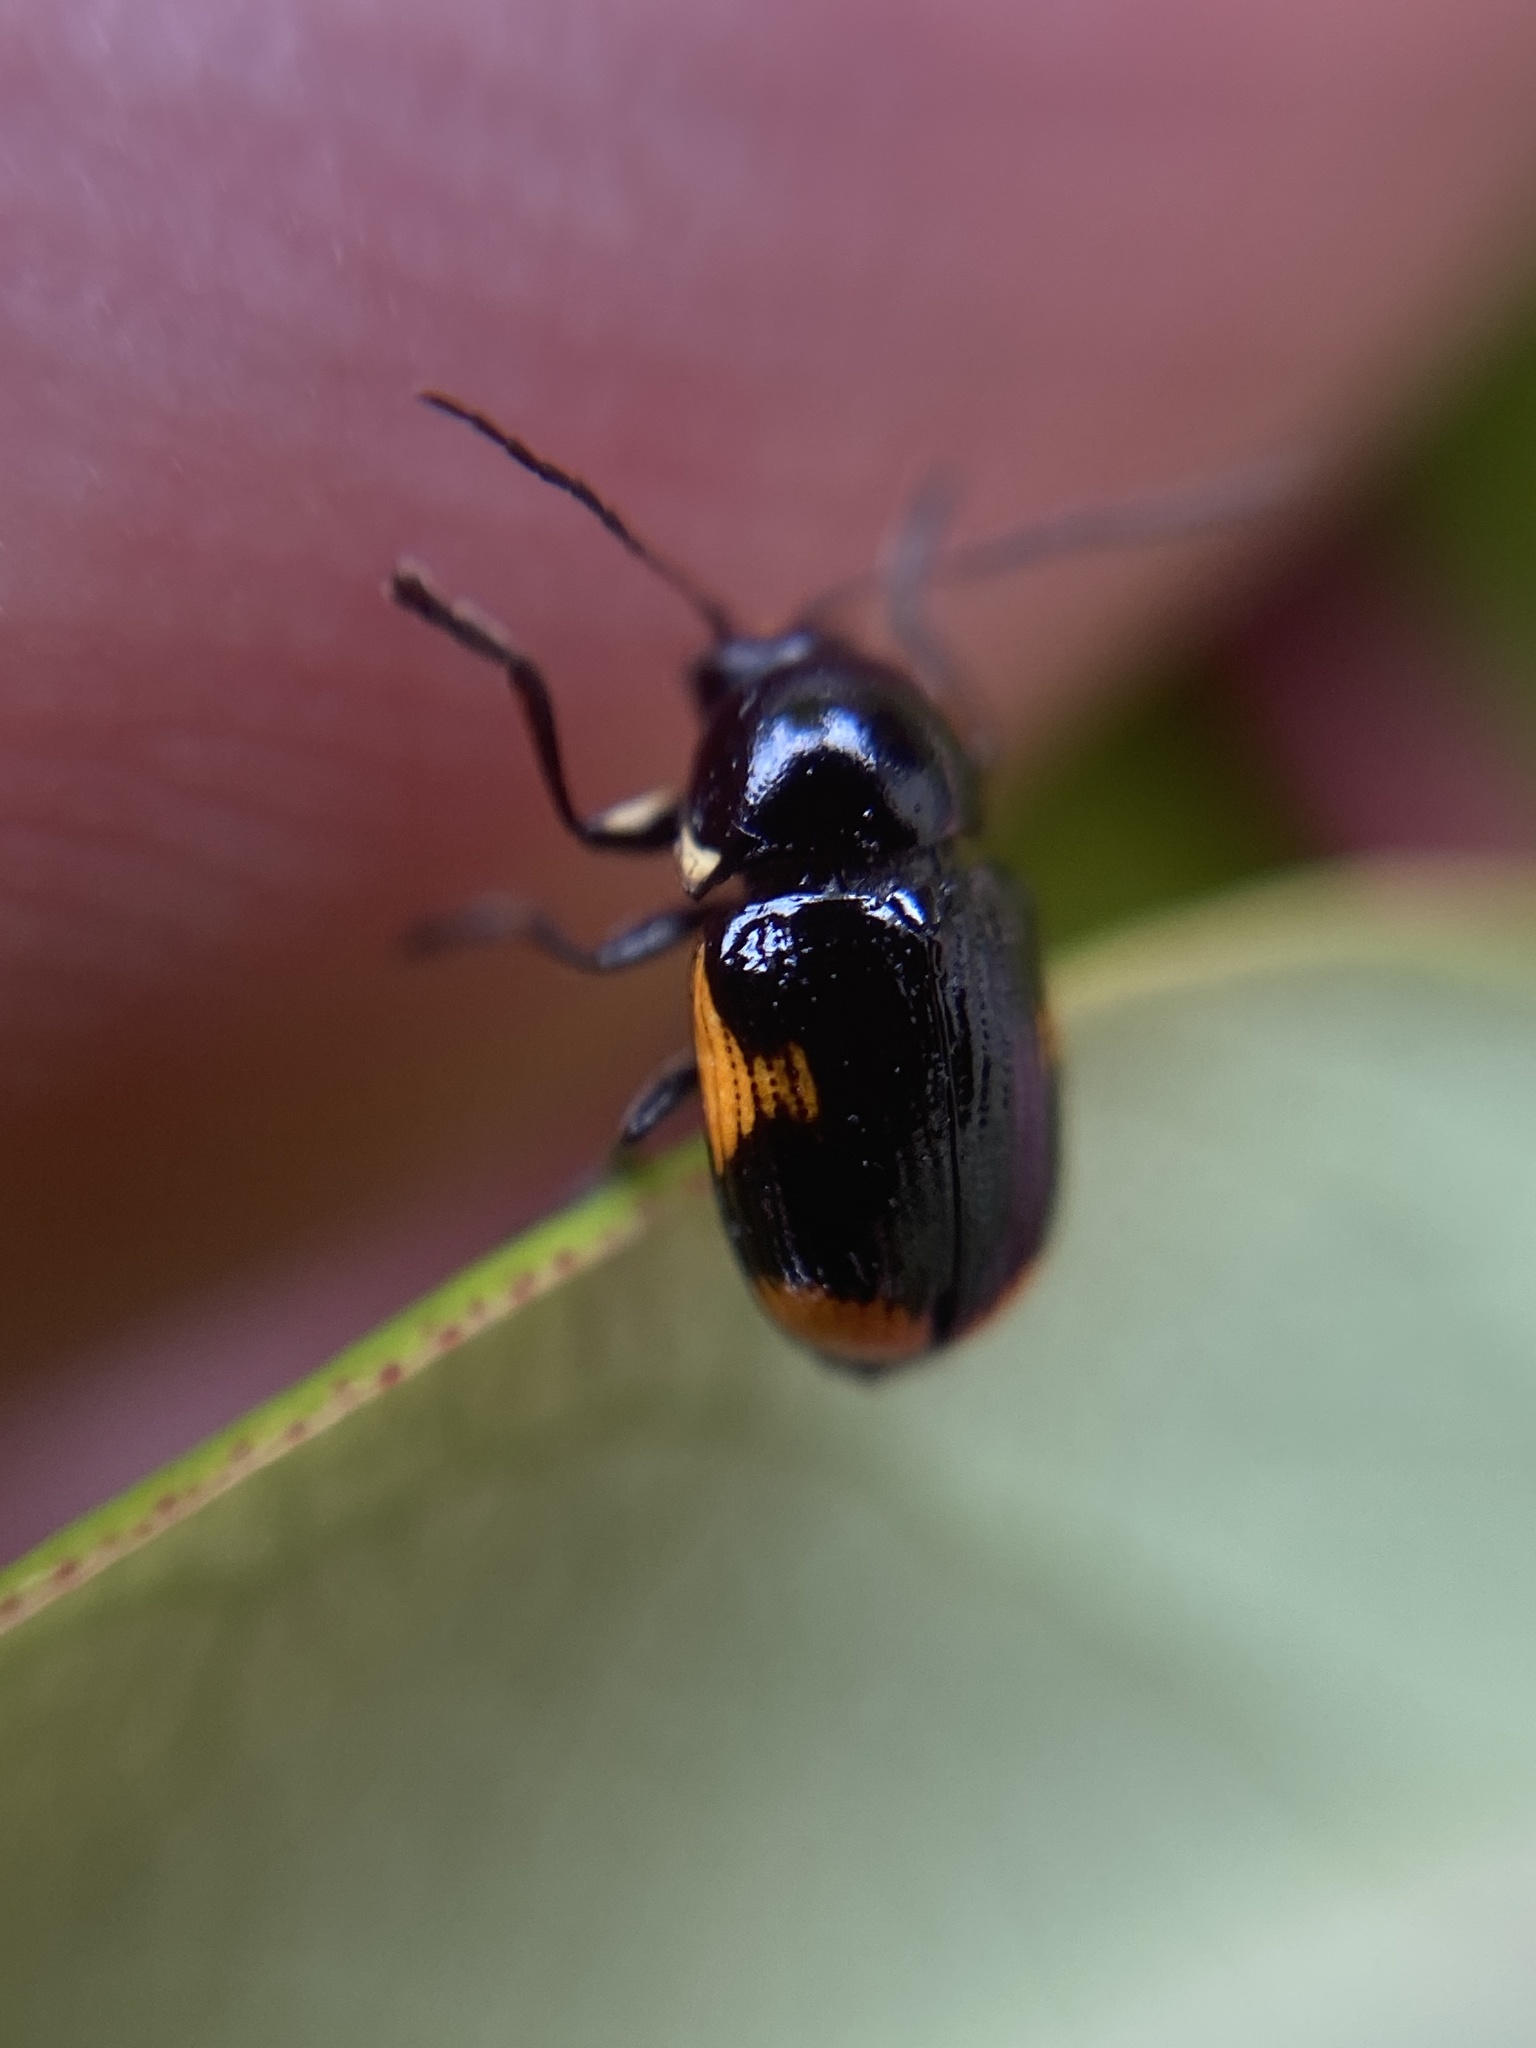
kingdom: Animalia
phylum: Arthropoda
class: Insecta
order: Coleoptera
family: Chrysomelidae
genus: Cryptocephalus
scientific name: Cryptocephalus moraei
